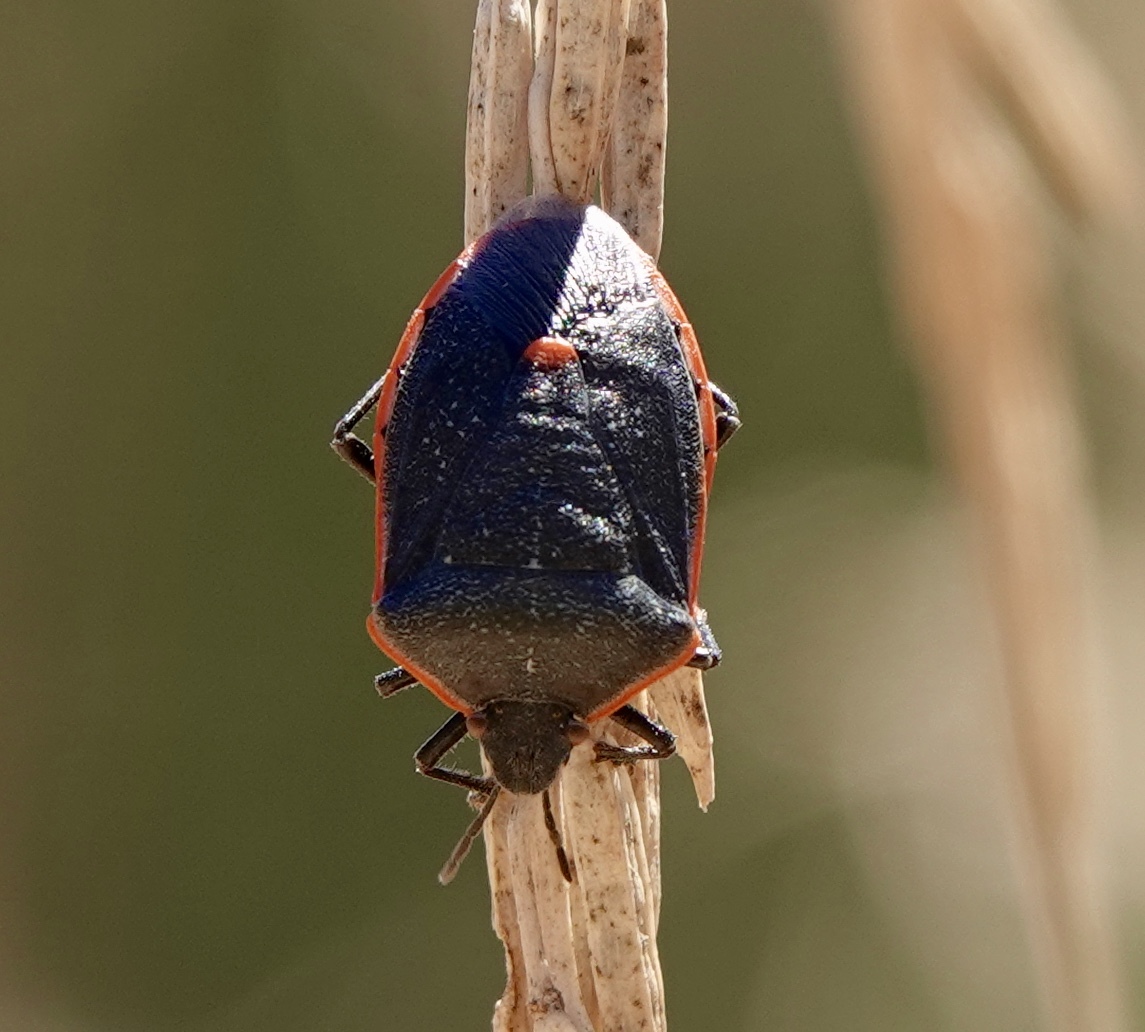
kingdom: Animalia
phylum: Arthropoda
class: Insecta
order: Hemiptera
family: Pentatomidae
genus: Chlorochroa
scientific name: Chlorochroa ligata
